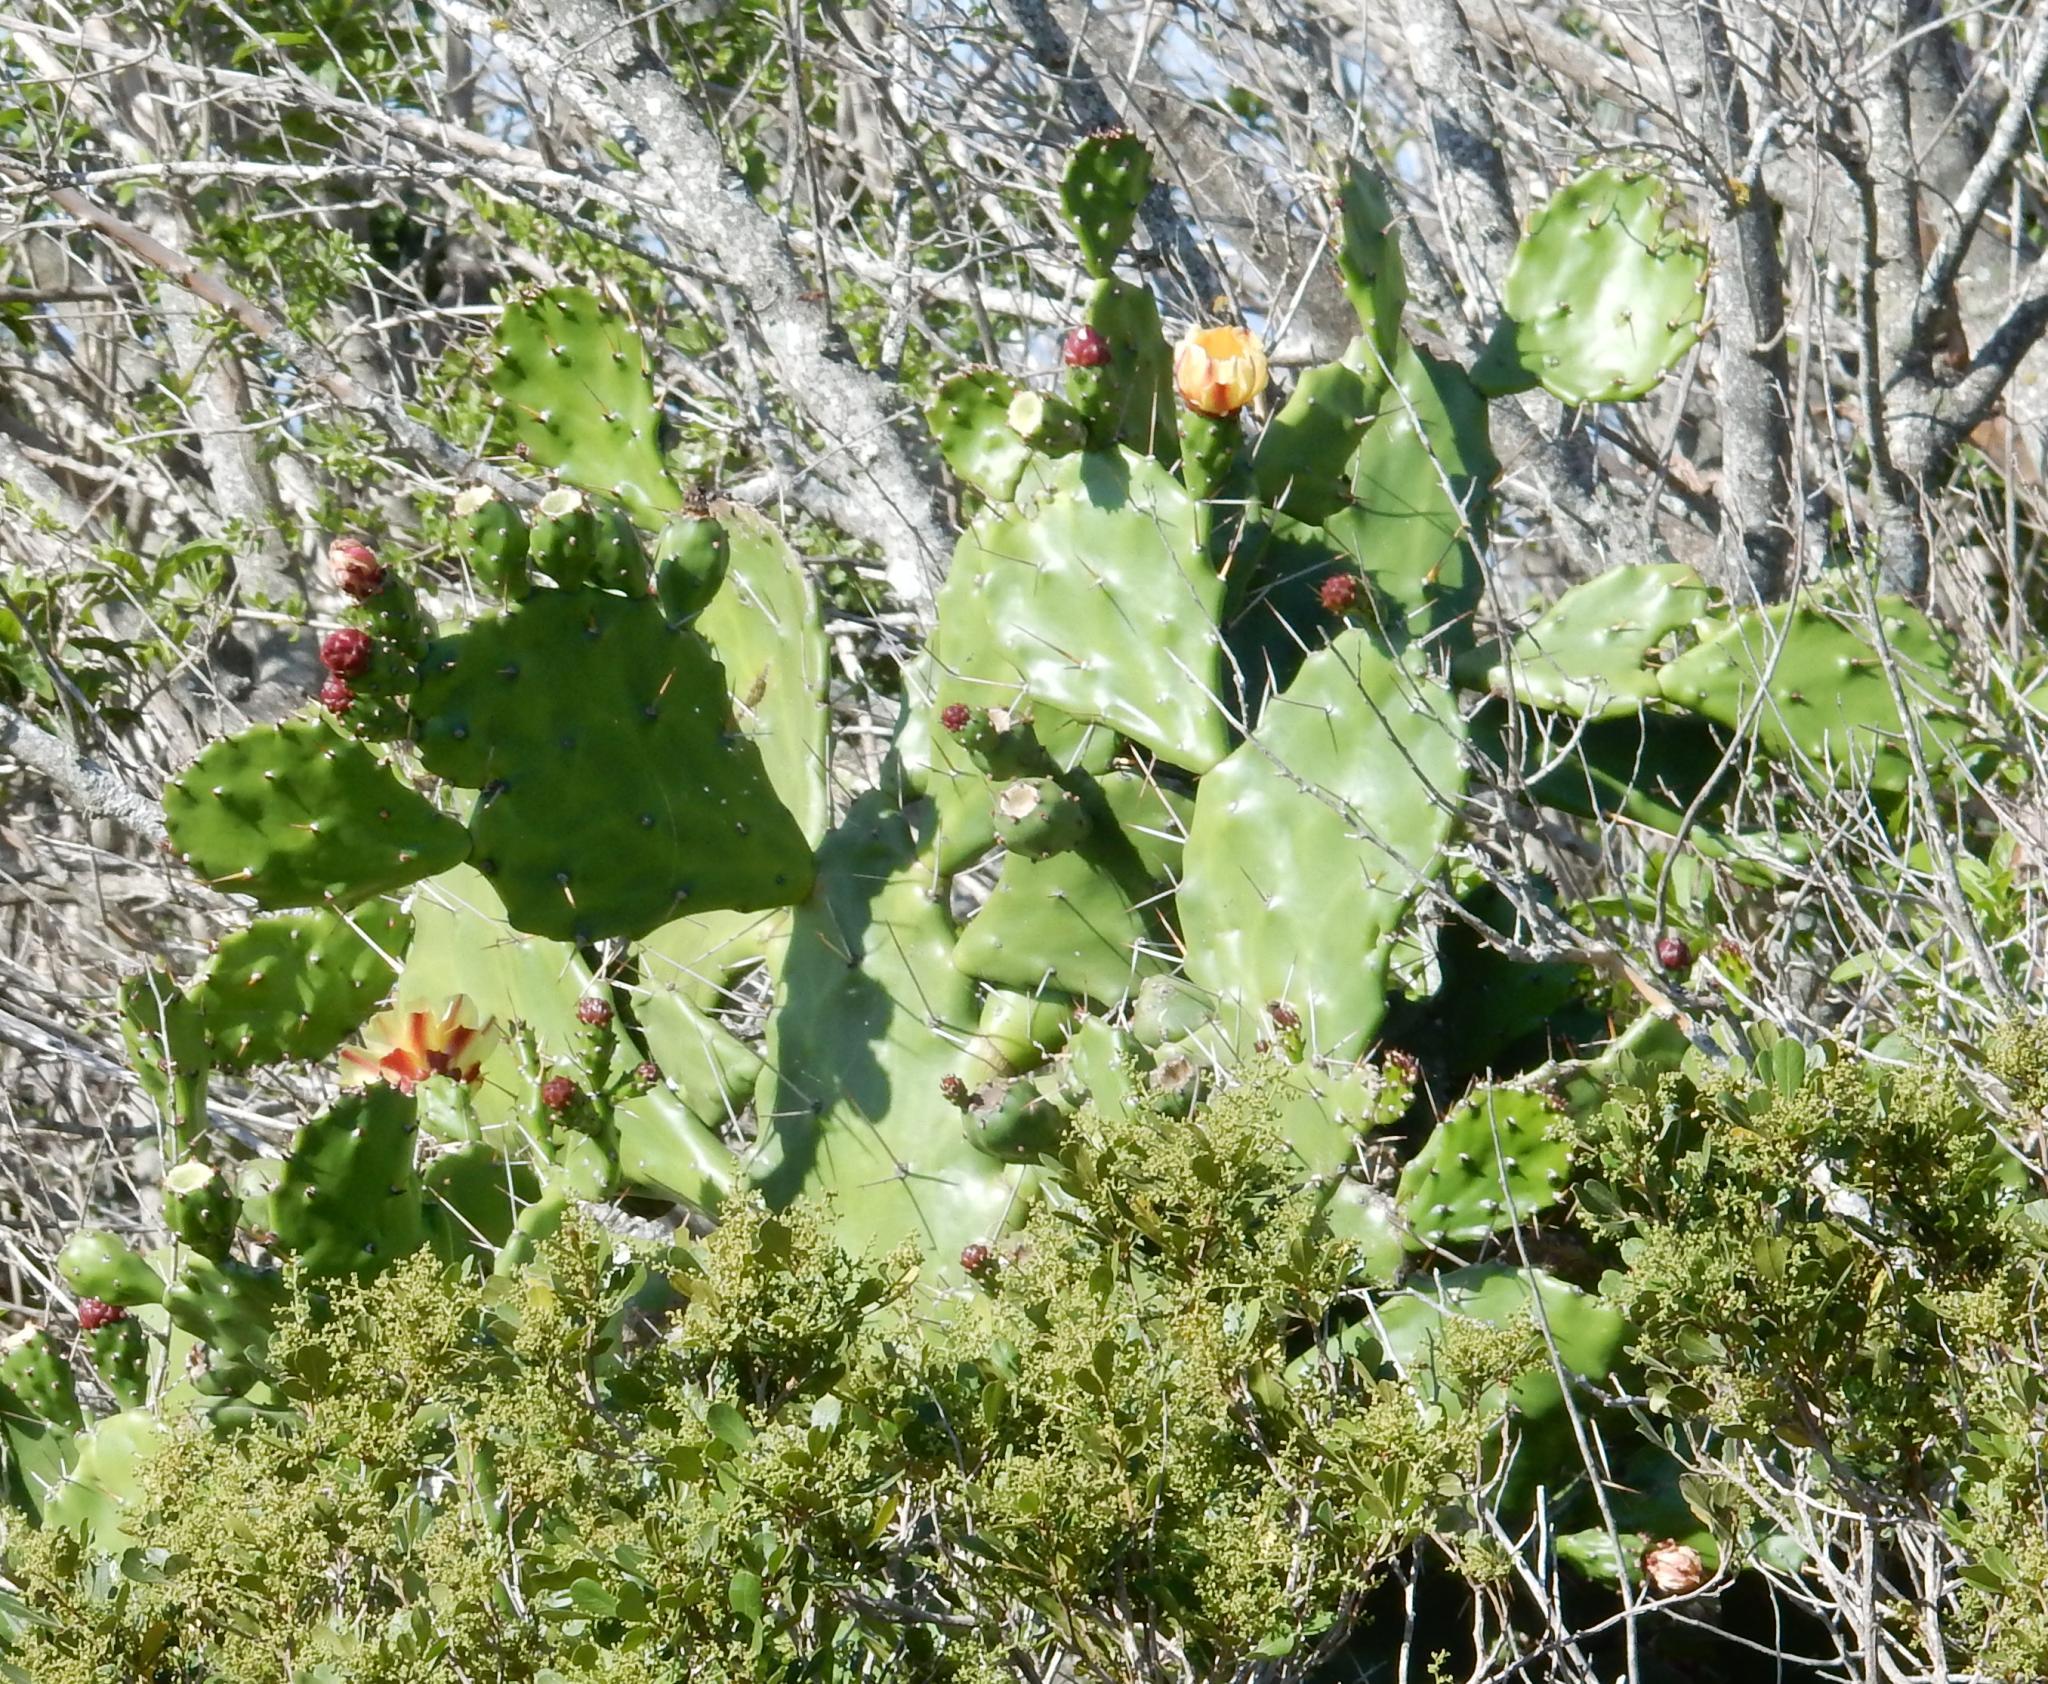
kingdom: Plantae
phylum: Tracheophyta
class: Magnoliopsida
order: Caryophyllales
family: Cactaceae
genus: Opuntia
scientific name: Opuntia monacantha
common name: Common pricklypear
